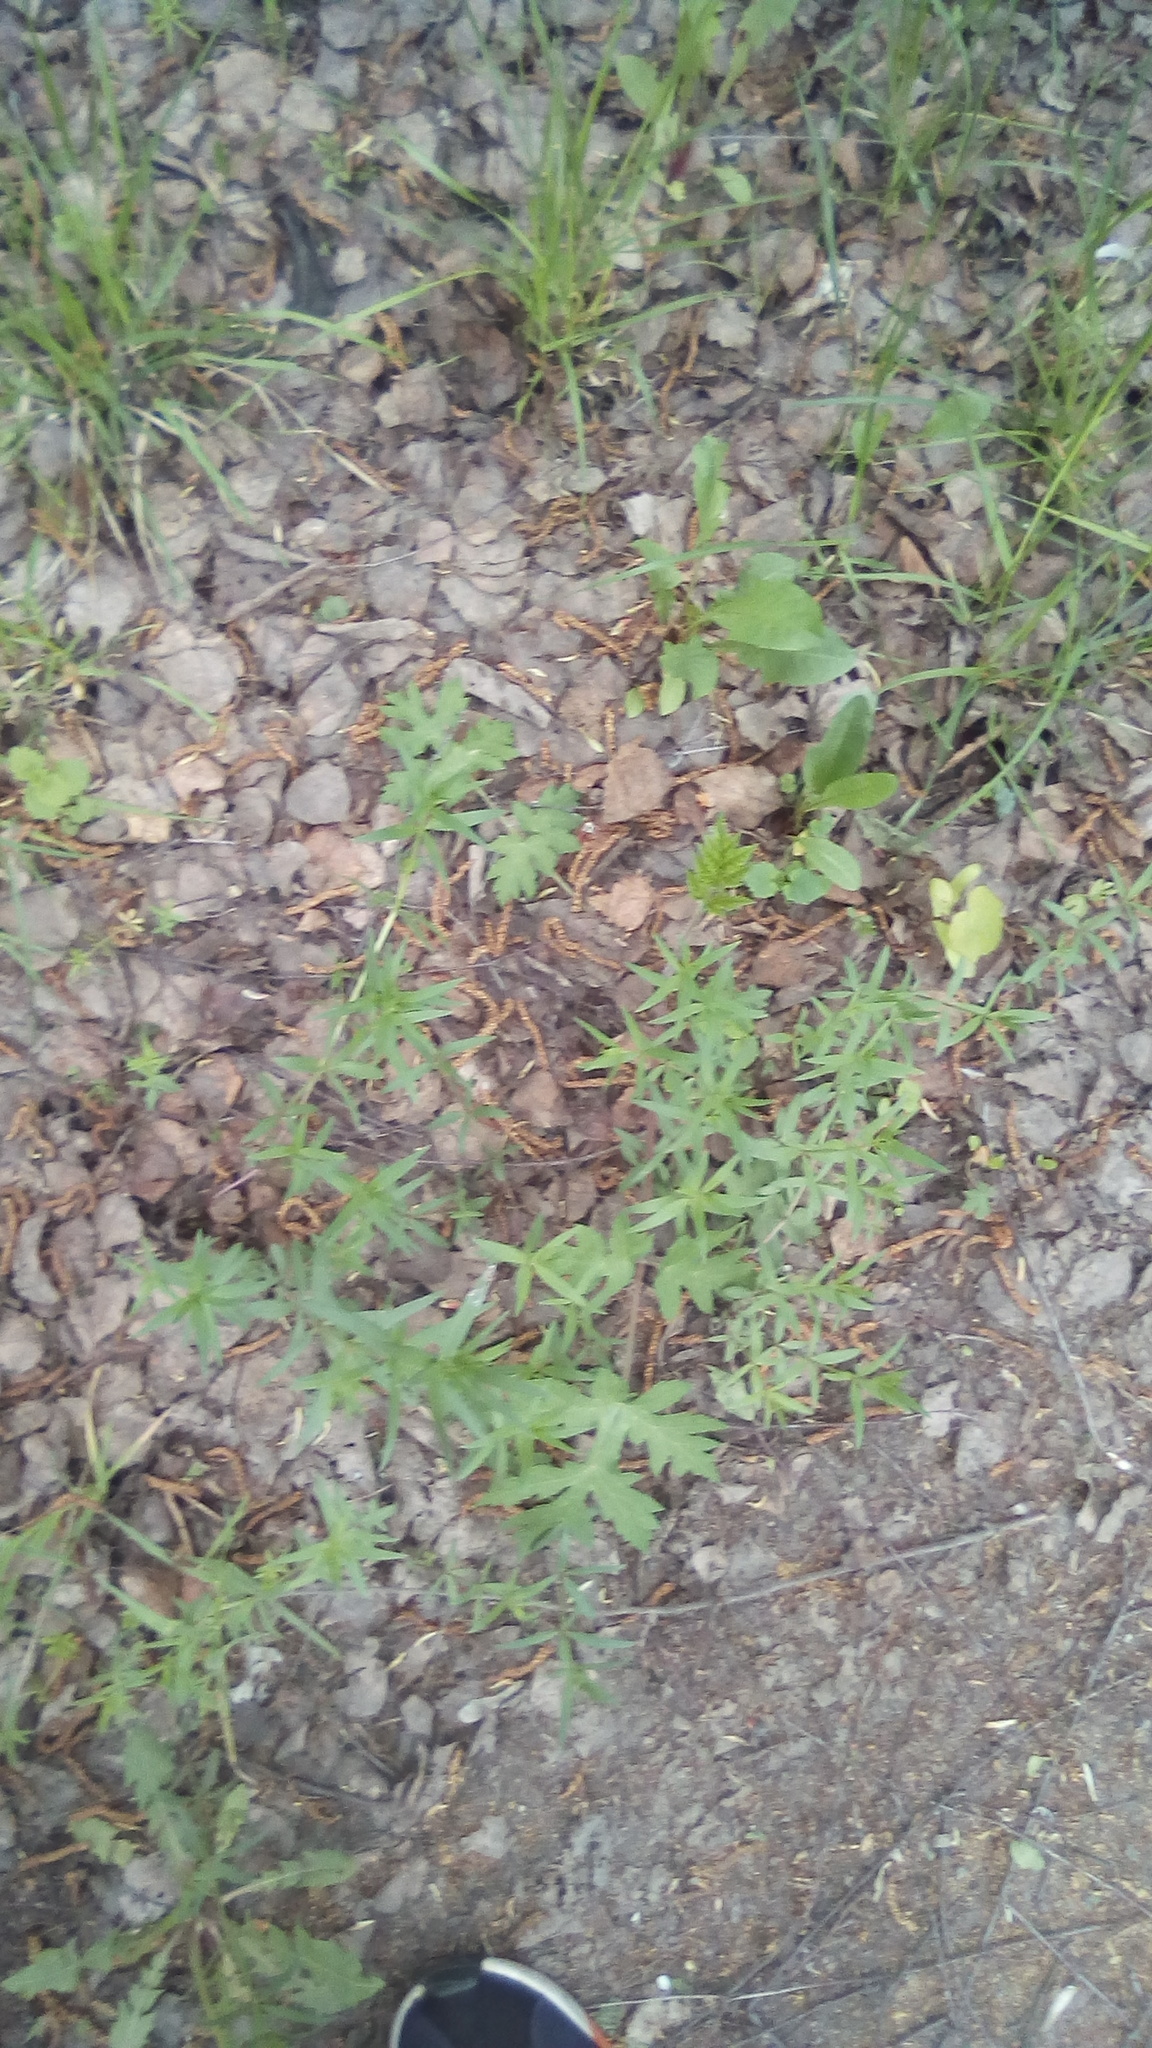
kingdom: Plantae
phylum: Tracheophyta
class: Magnoliopsida
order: Apiales
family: Apiaceae
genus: Heracleum
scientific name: Heracleum sphondylium
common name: Hogweed
